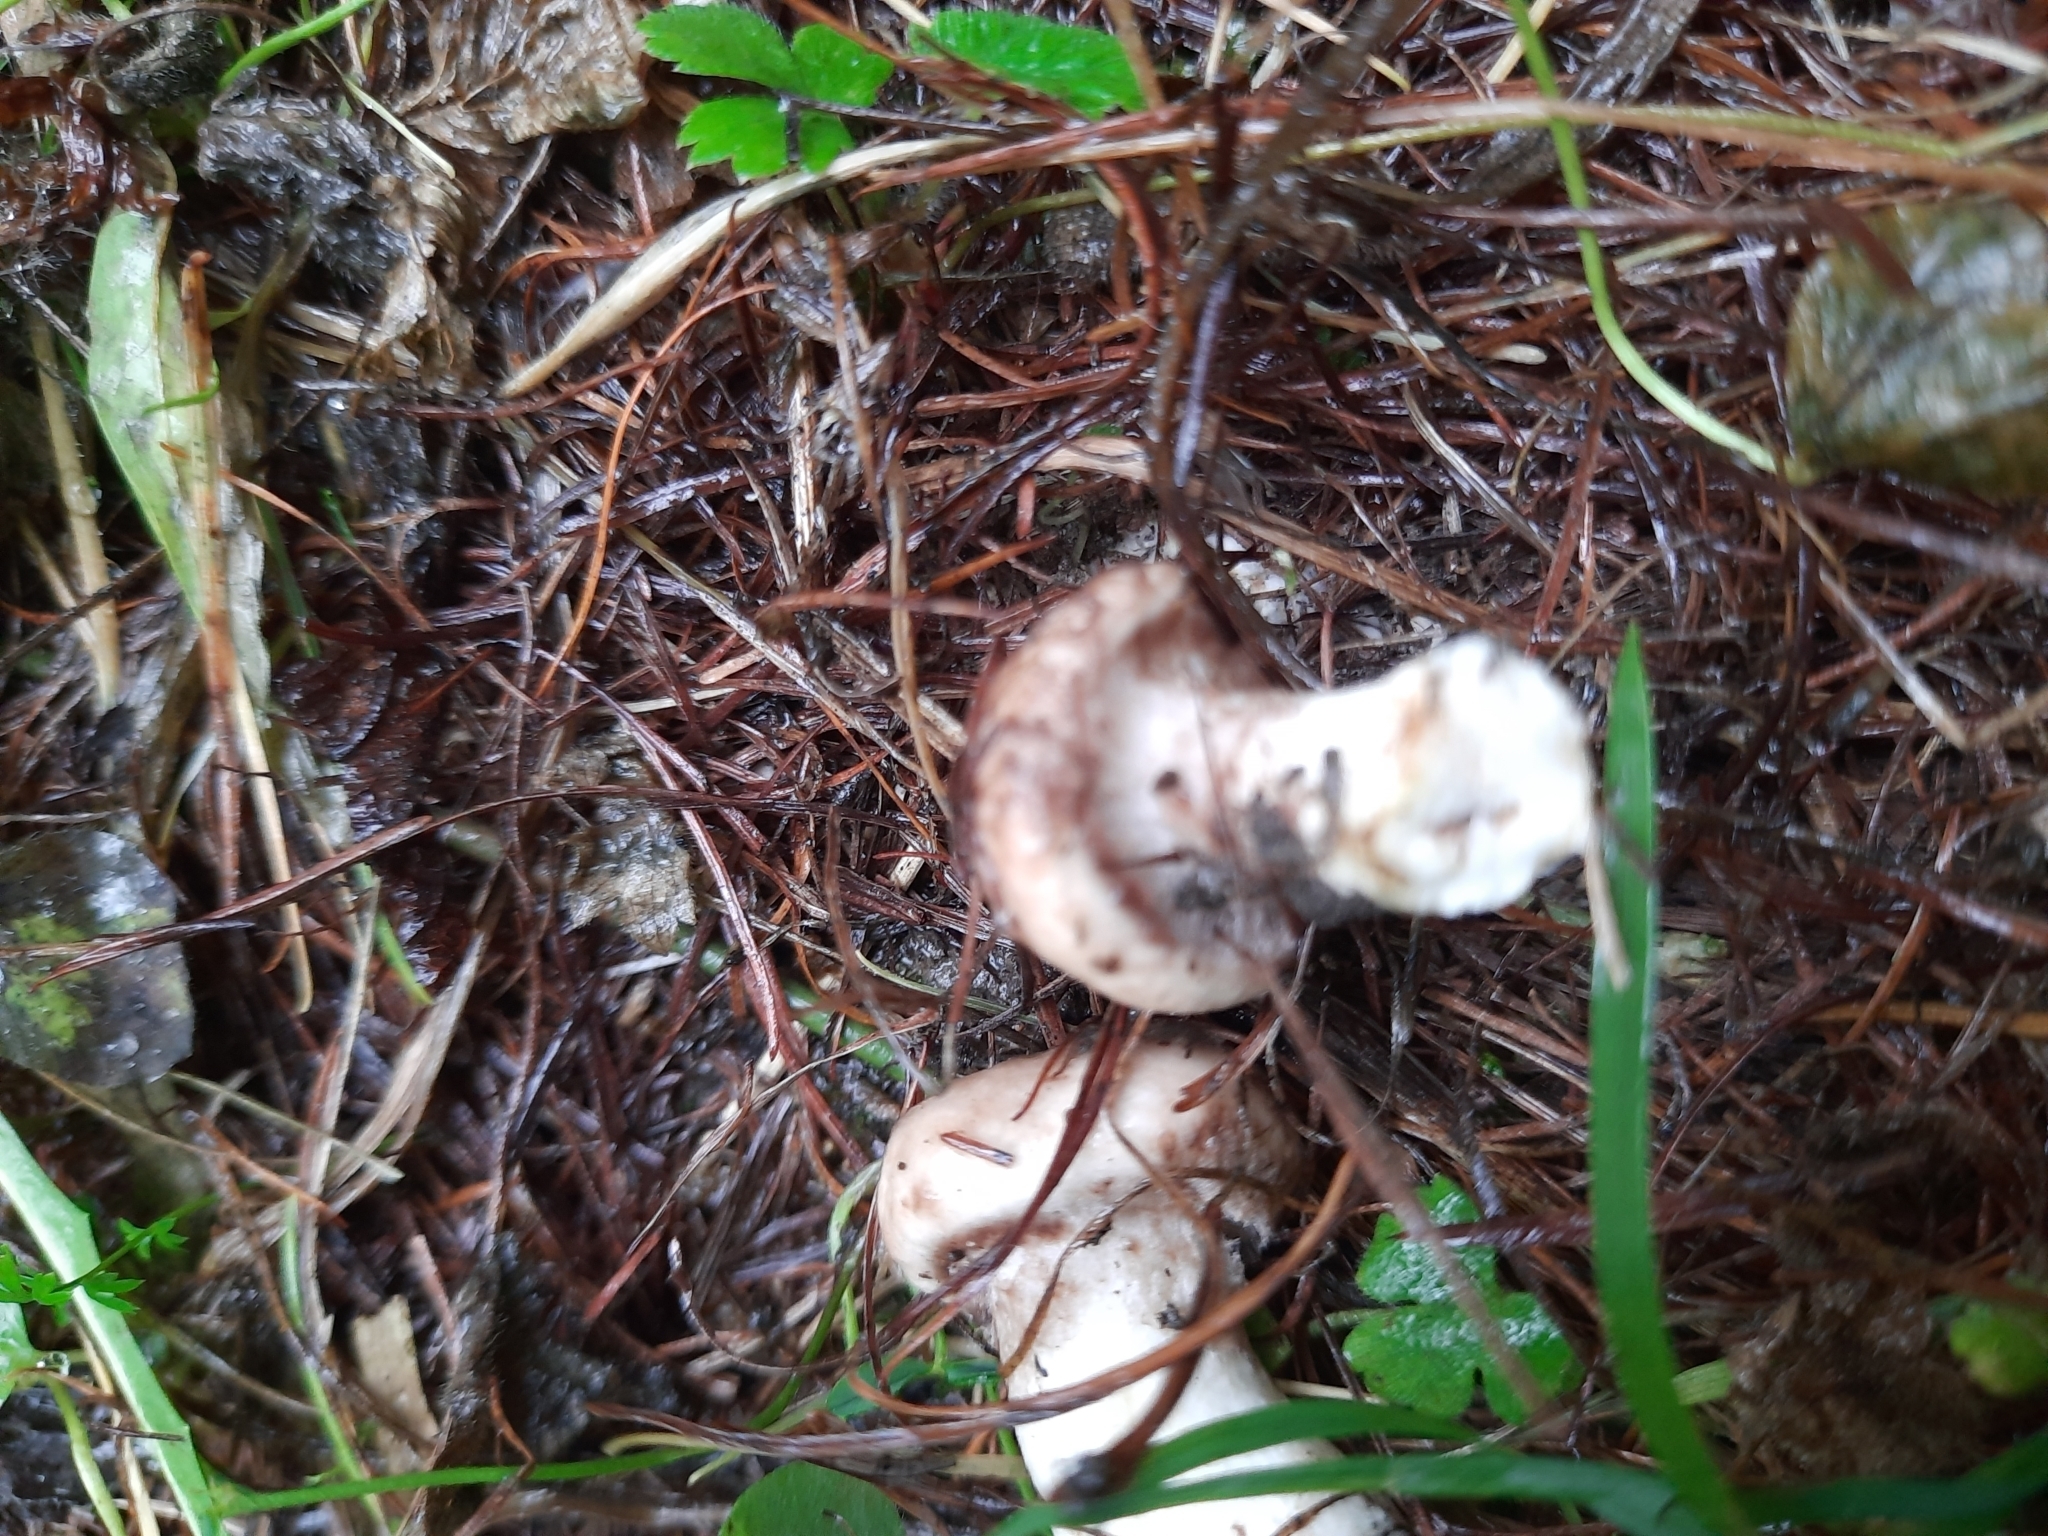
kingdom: Fungi
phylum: Basidiomycota
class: Agaricomycetes
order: Boletales
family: Suillaceae
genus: Suillus
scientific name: Suillus viscidus
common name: Sticky bolete
